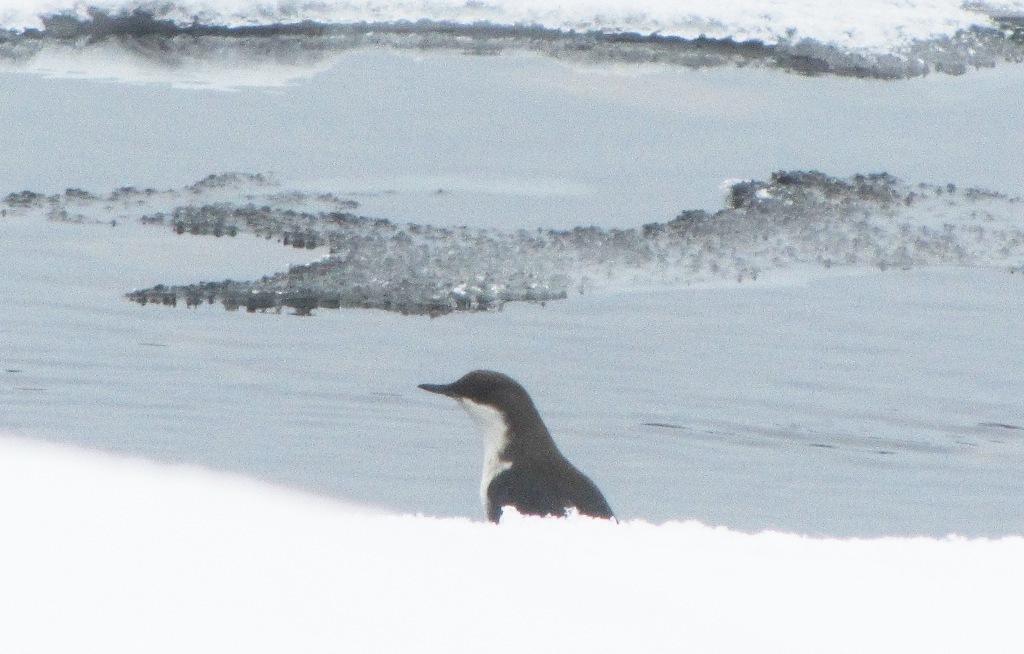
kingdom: Animalia
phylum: Chordata
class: Aves
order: Passeriformes
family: Cinclidae
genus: Cinclus
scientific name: Cinclus cinclus
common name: White-throated dipper
